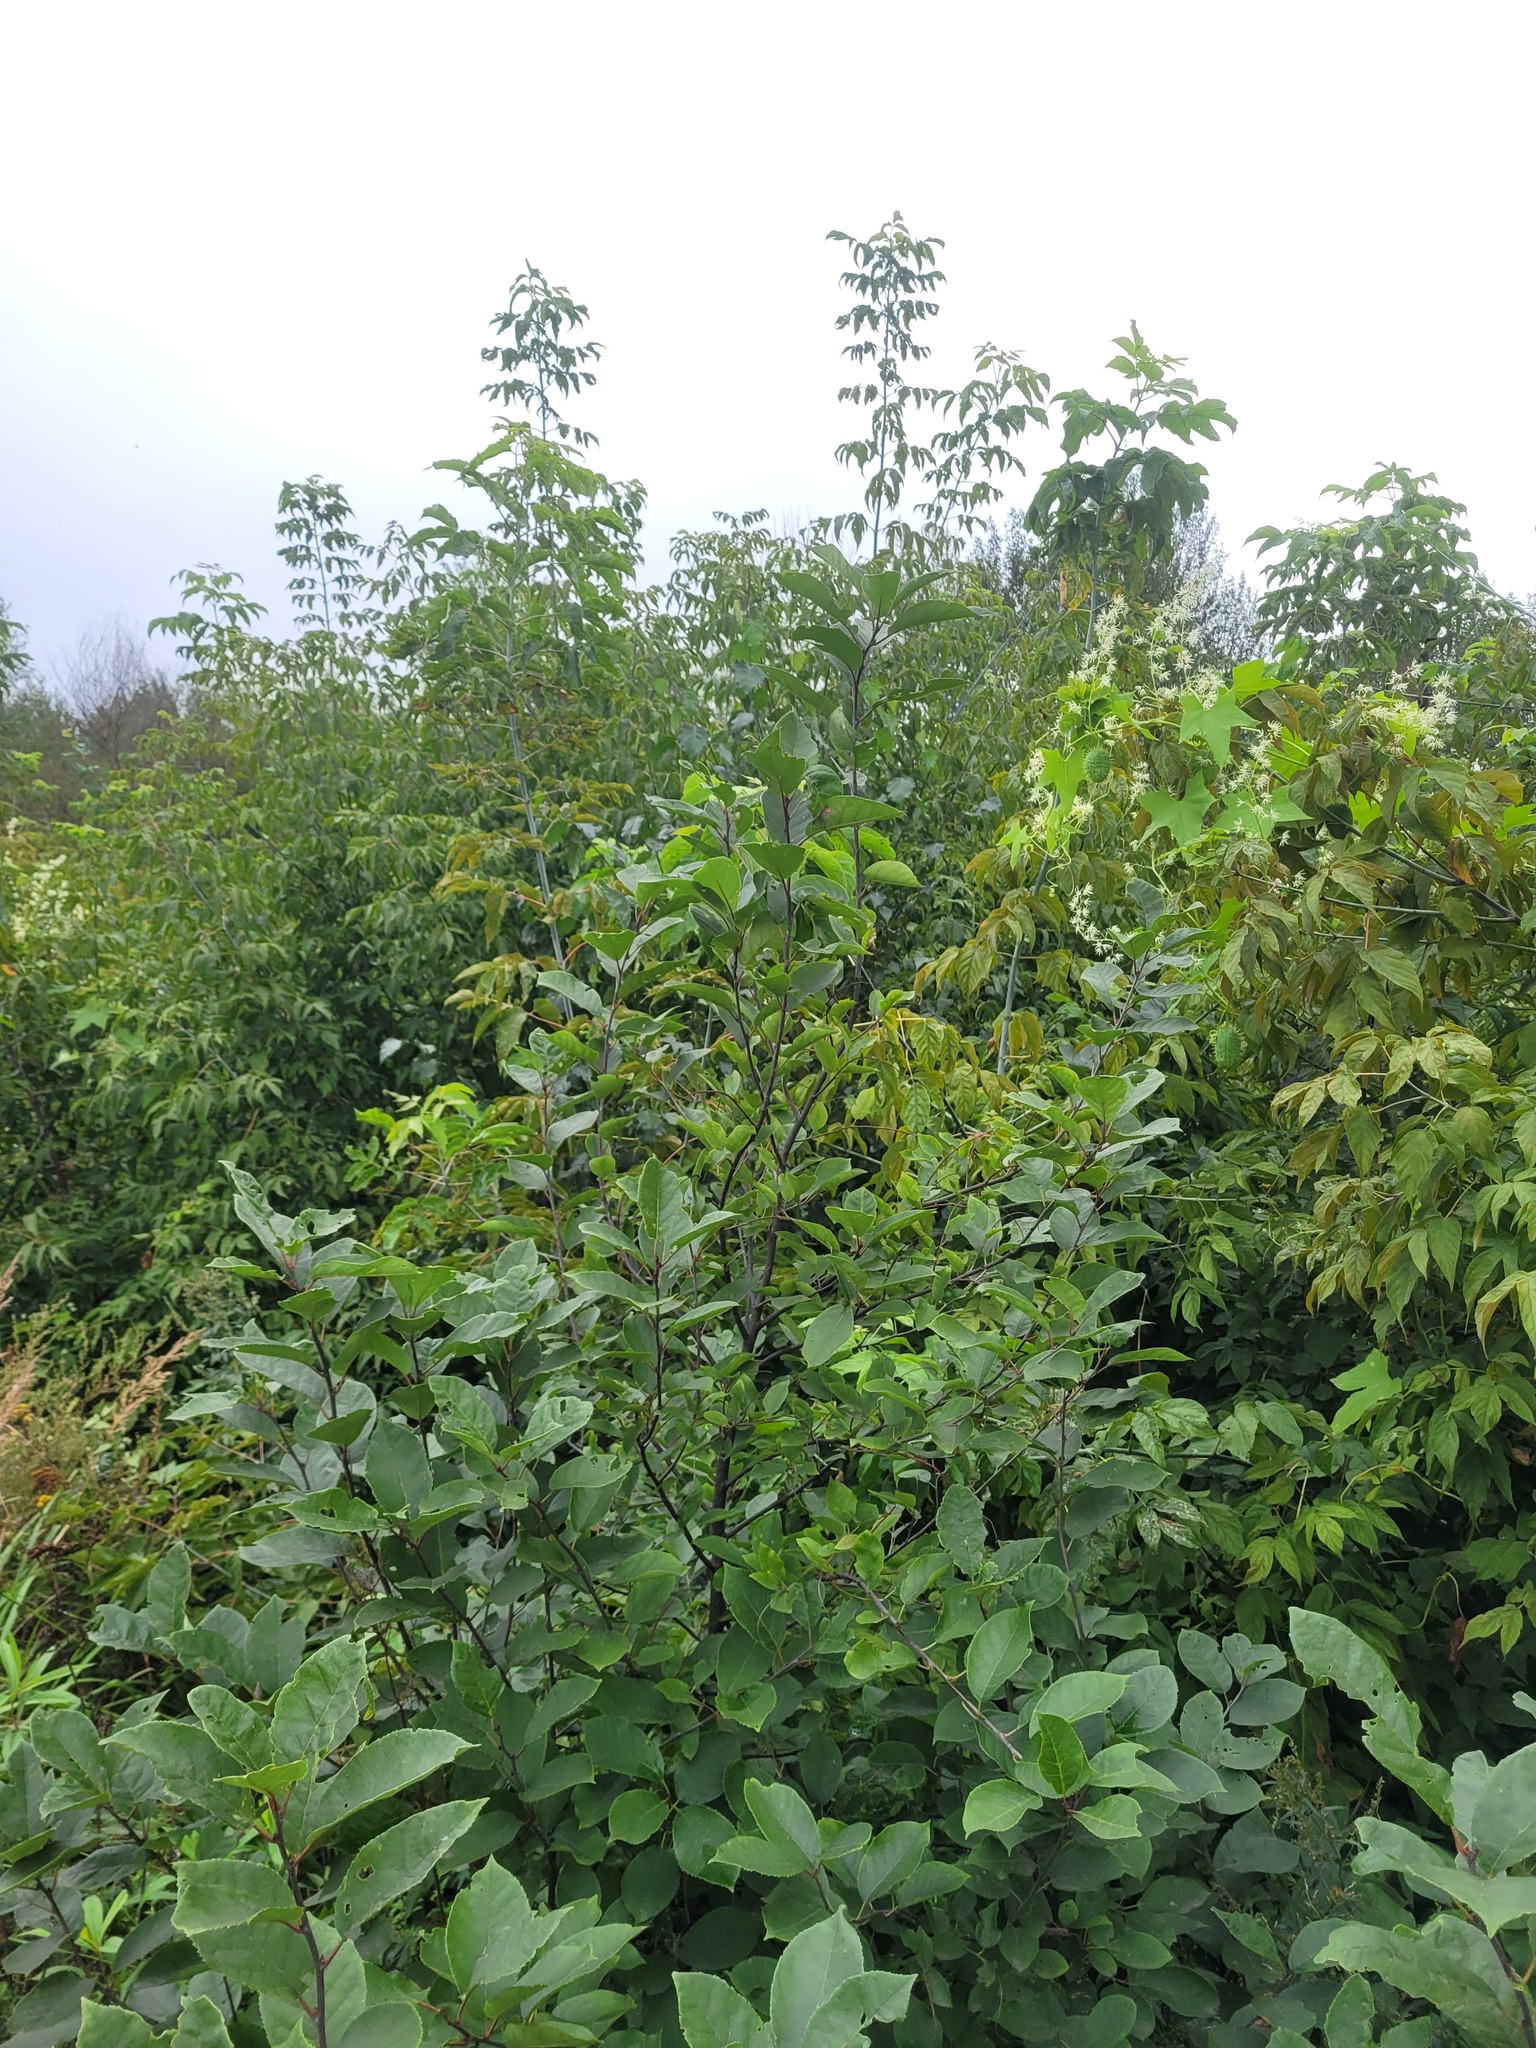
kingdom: Plantae
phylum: Tracheophyta
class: Magnoliopsida
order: Rosales
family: Rosaceae
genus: Prunus
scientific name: Prunus virginiana
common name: Chokecherry
